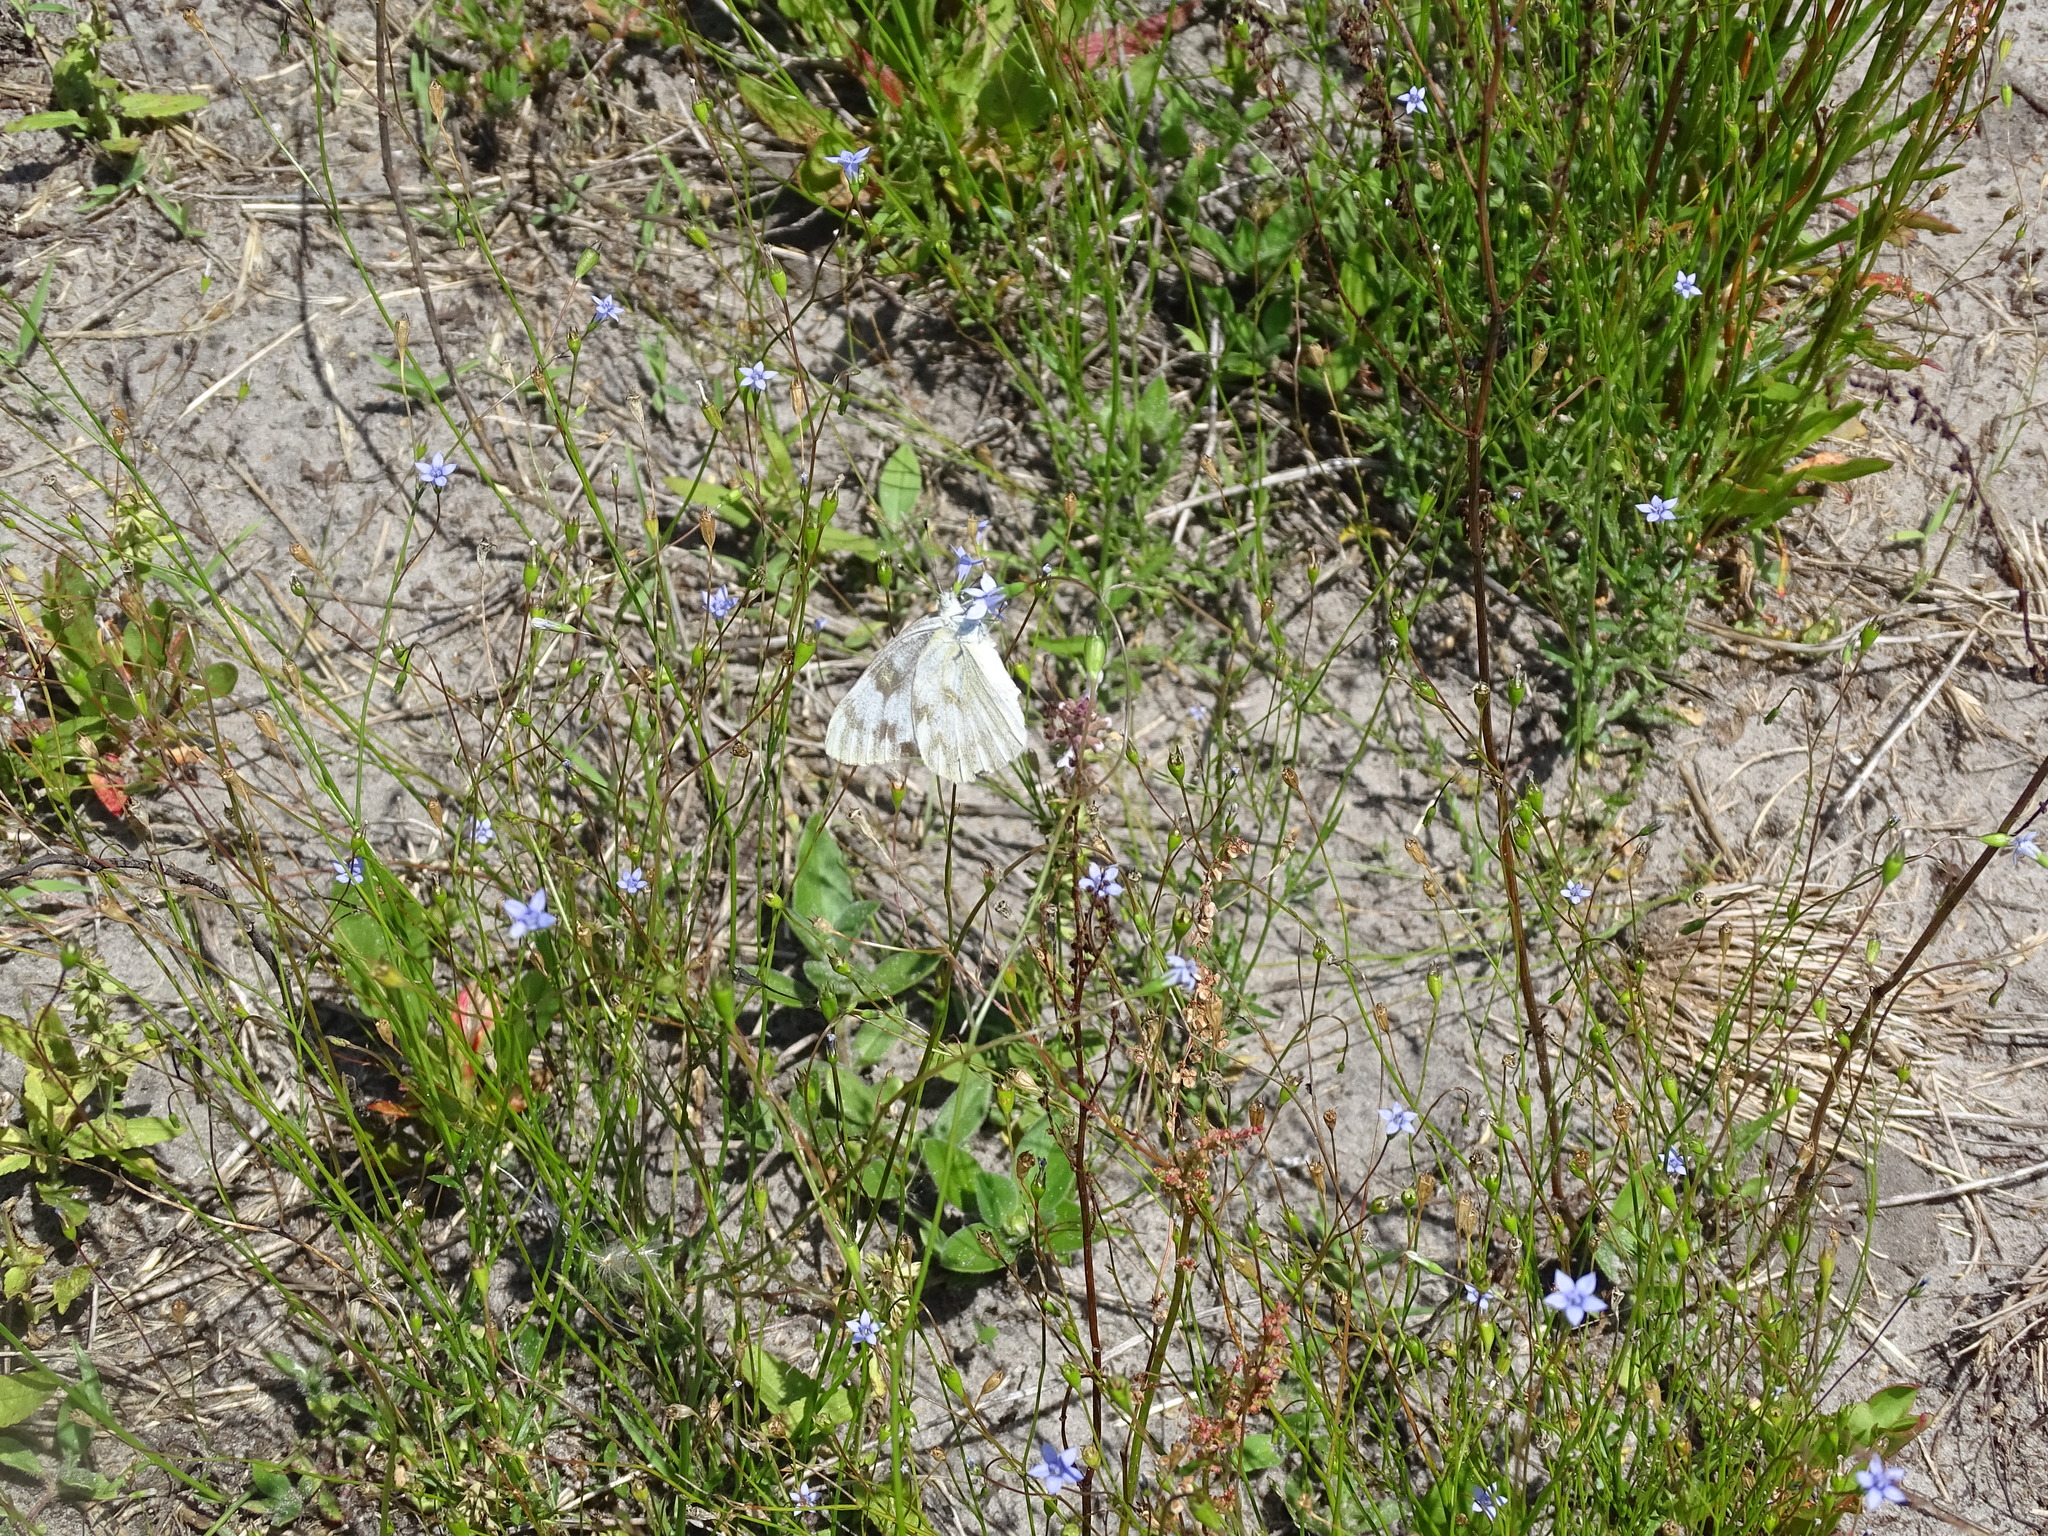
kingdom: Animalia
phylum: Arthropoda
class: Insecta
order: Lepidoptera
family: Pieridae
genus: Pontia
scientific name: Pontia protodice
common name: Checkered white
